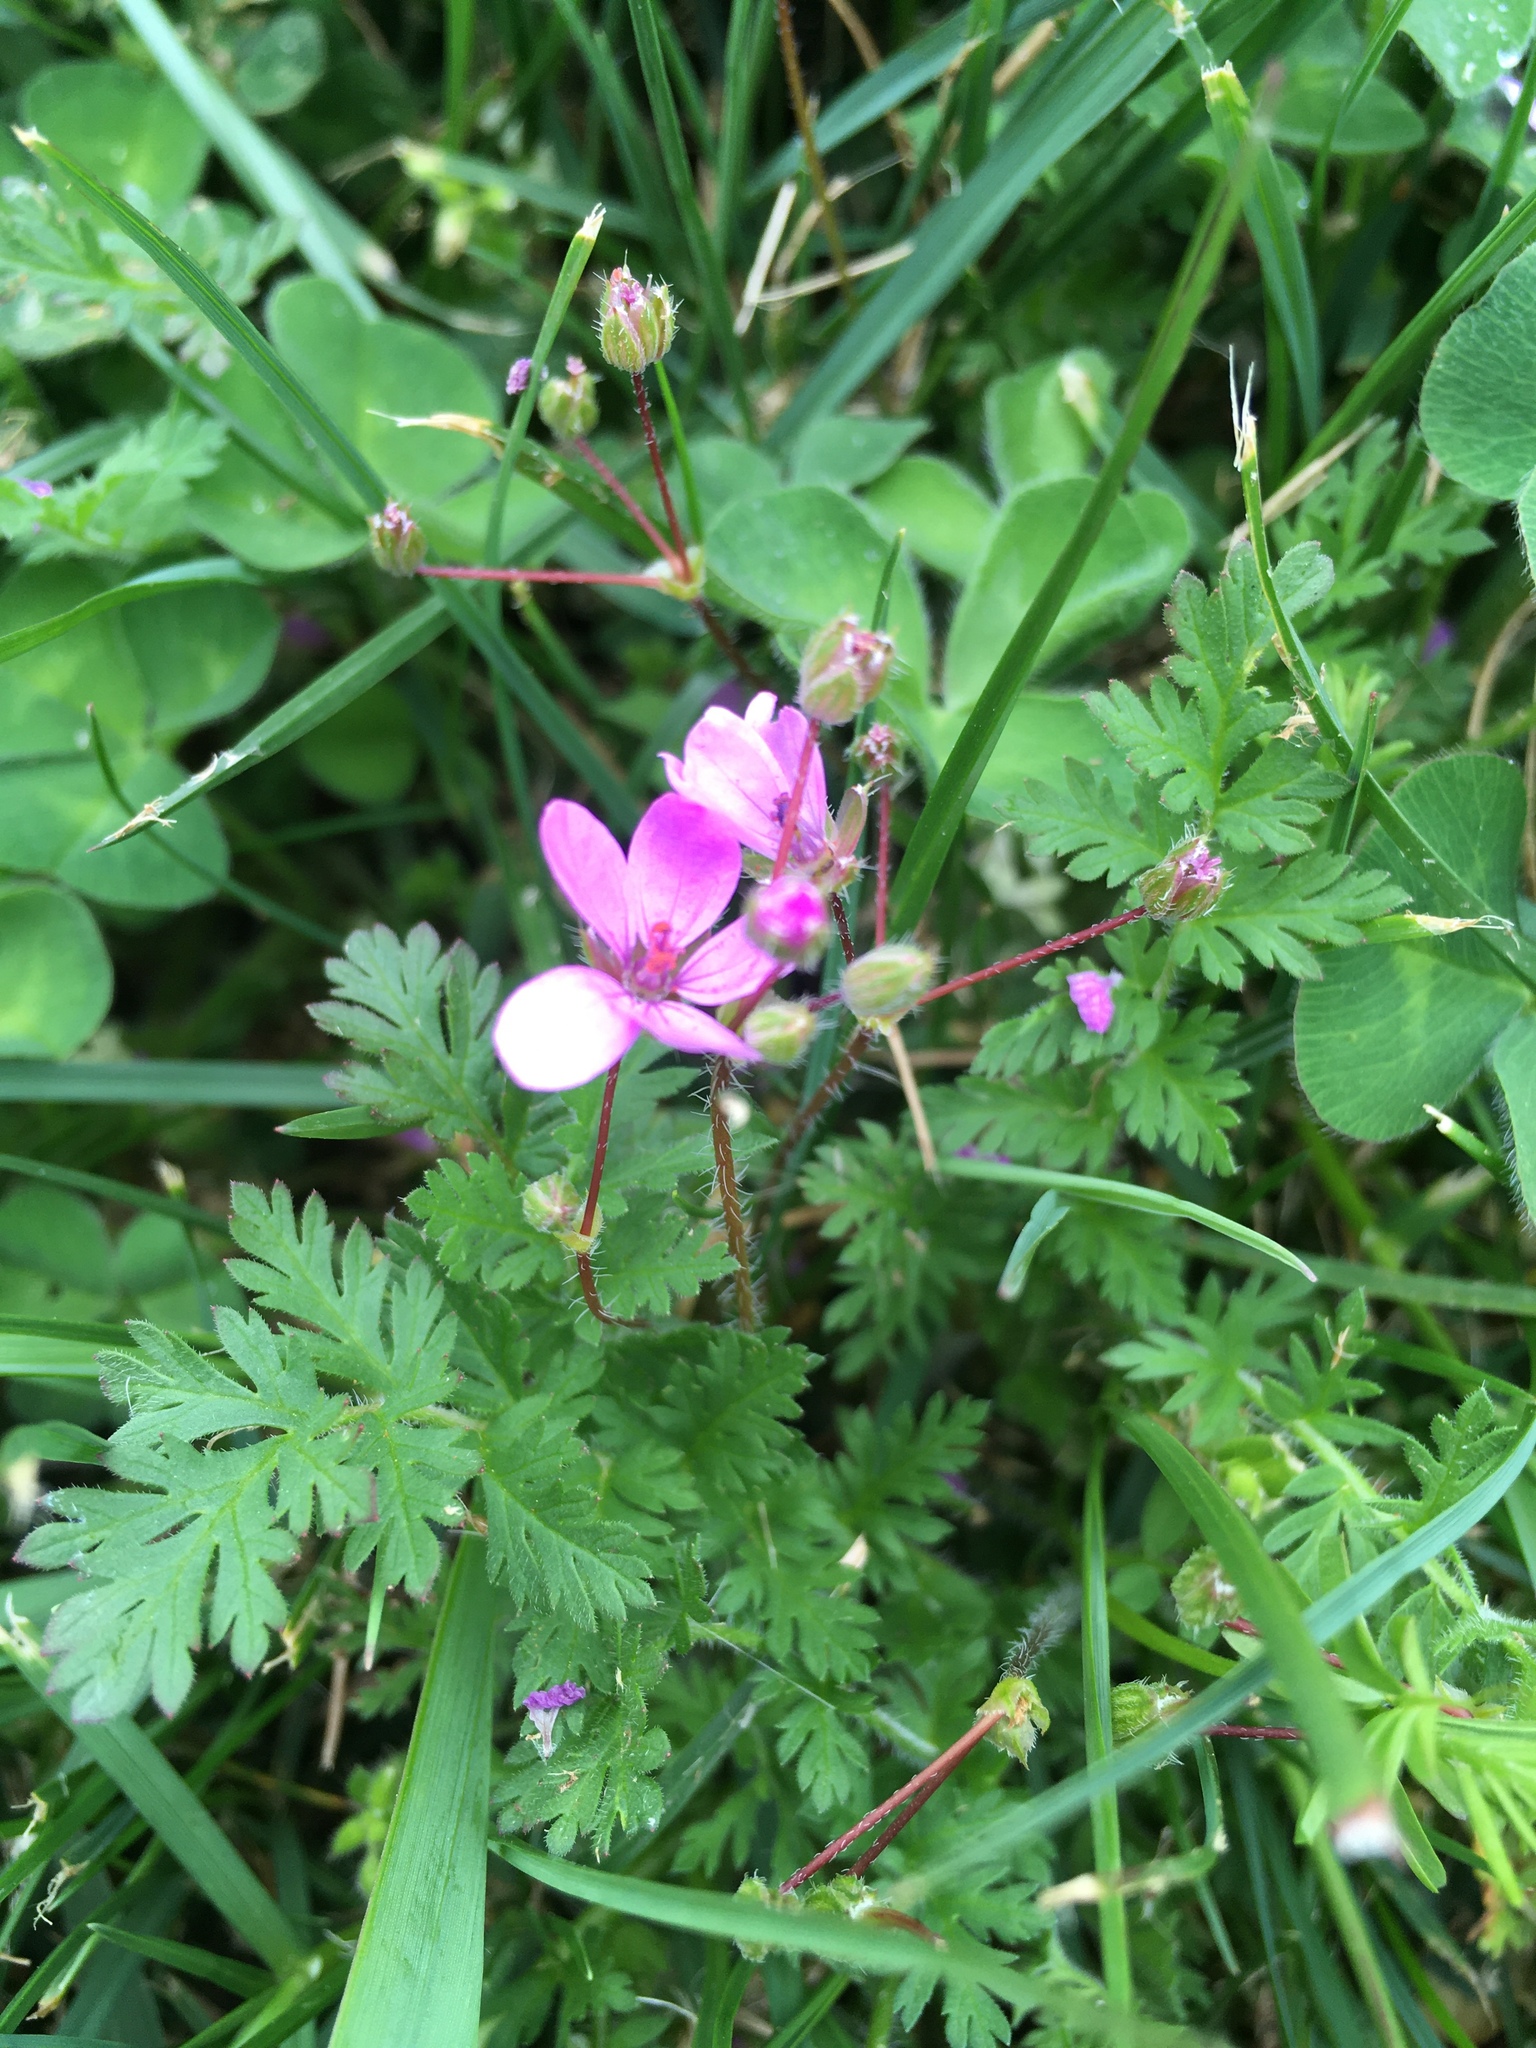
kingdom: Plantae
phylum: Tracheophyta
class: Magnoliopsida
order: Geraniales
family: Geraniaceae
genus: Erodium
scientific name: Erodium cicutarium
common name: Common stork's-bill
